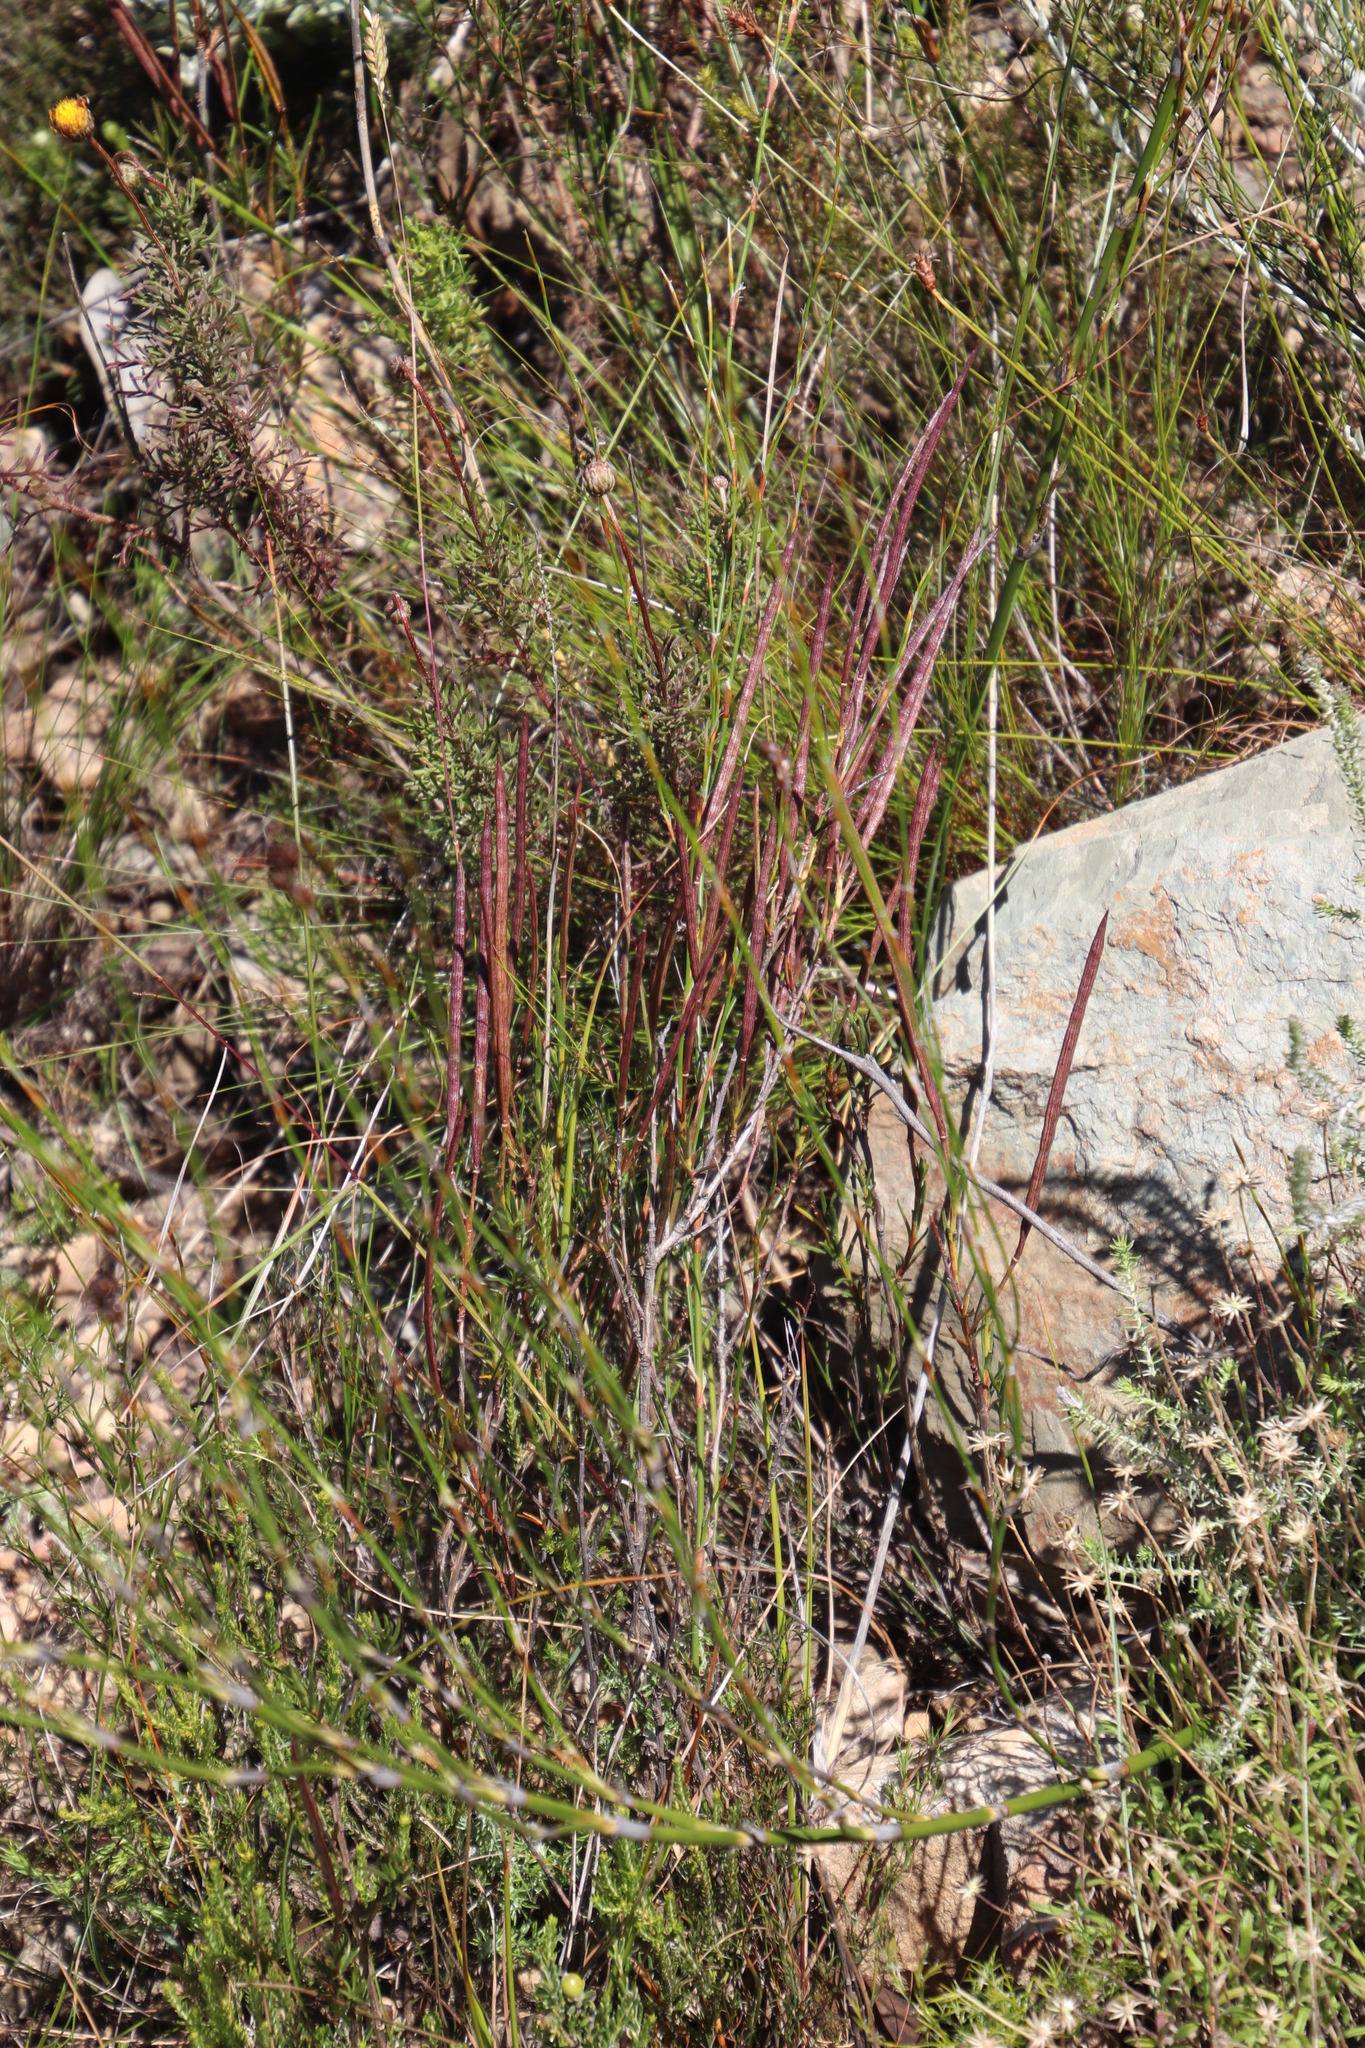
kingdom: Plantae
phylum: Tracheophyta
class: Magnoliopsida
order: Brassicales
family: Brassicaceae
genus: Heliophila
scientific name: Heliophila scoparia
